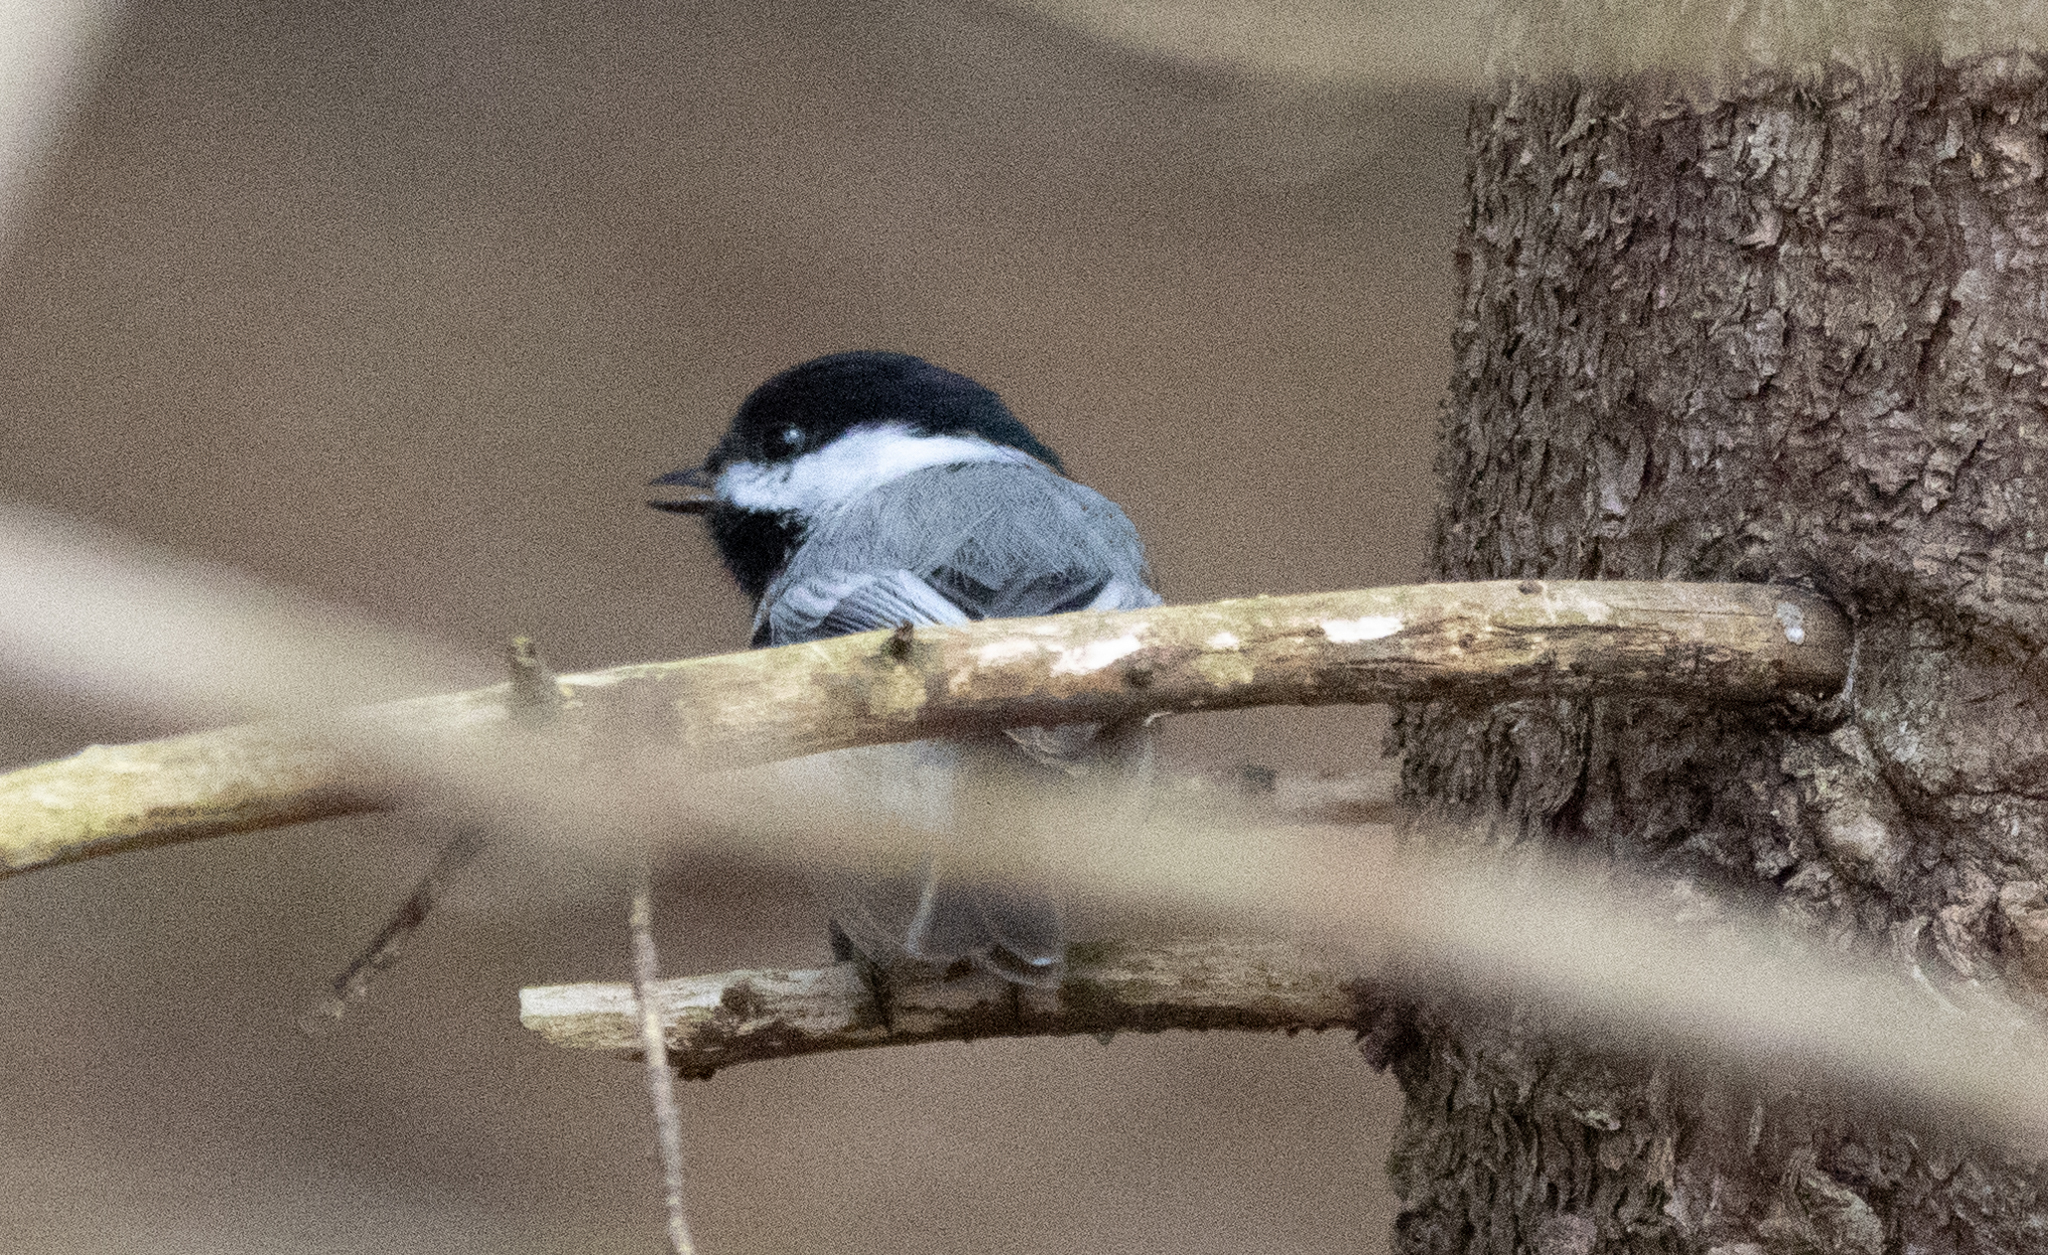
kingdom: Animalia
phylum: Chordata
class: Aves
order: Passeriformes
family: Paridae
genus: Poecile
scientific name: Poecile atricapillus
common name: Black-capped chickadee
